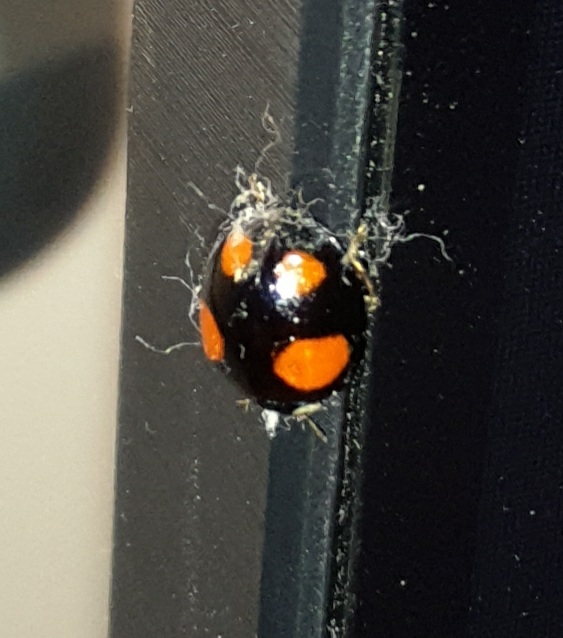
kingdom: Animalia
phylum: Arthropoda
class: Insecta
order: Coleoptera
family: Coccinellidae
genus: Harmonia
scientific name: Harmonia axyridis
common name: Harlequin ladybird
